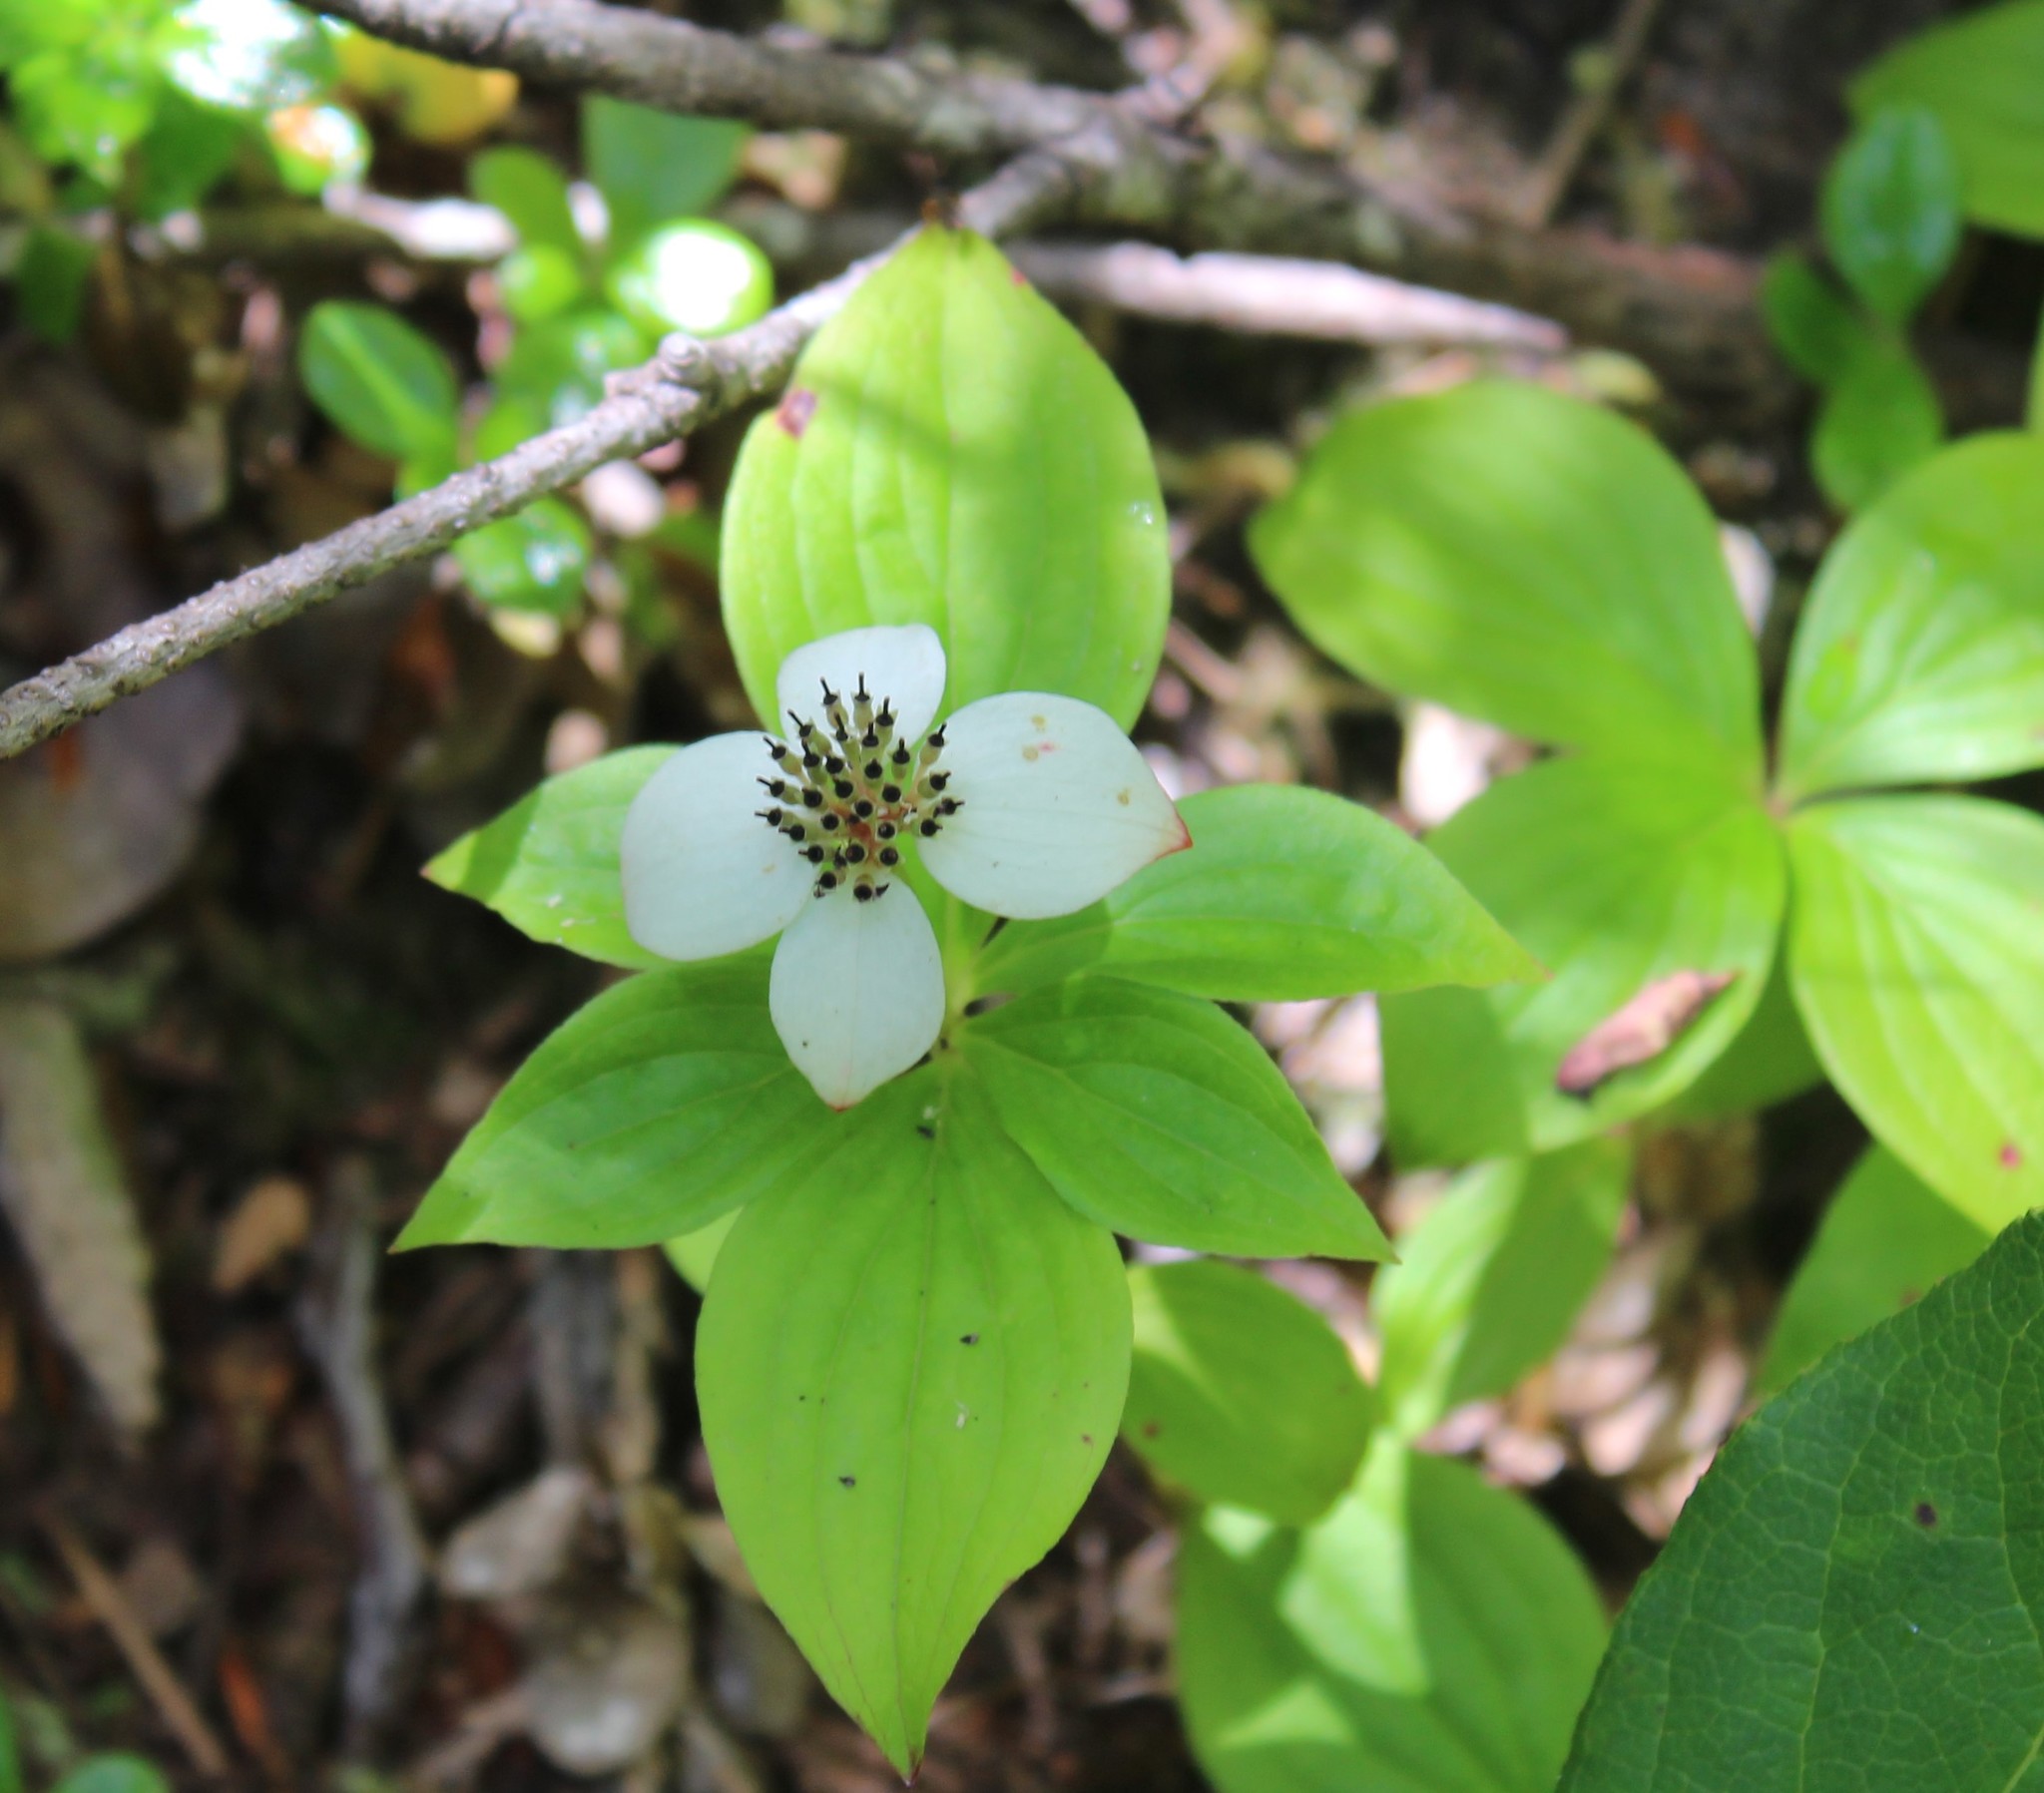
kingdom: Plantae
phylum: Tracheophyta
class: Magnoliopsida
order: Cornales
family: Cornaceae
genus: Cornus
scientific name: Cornus unalaschkensis
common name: Alaska bunchberry
